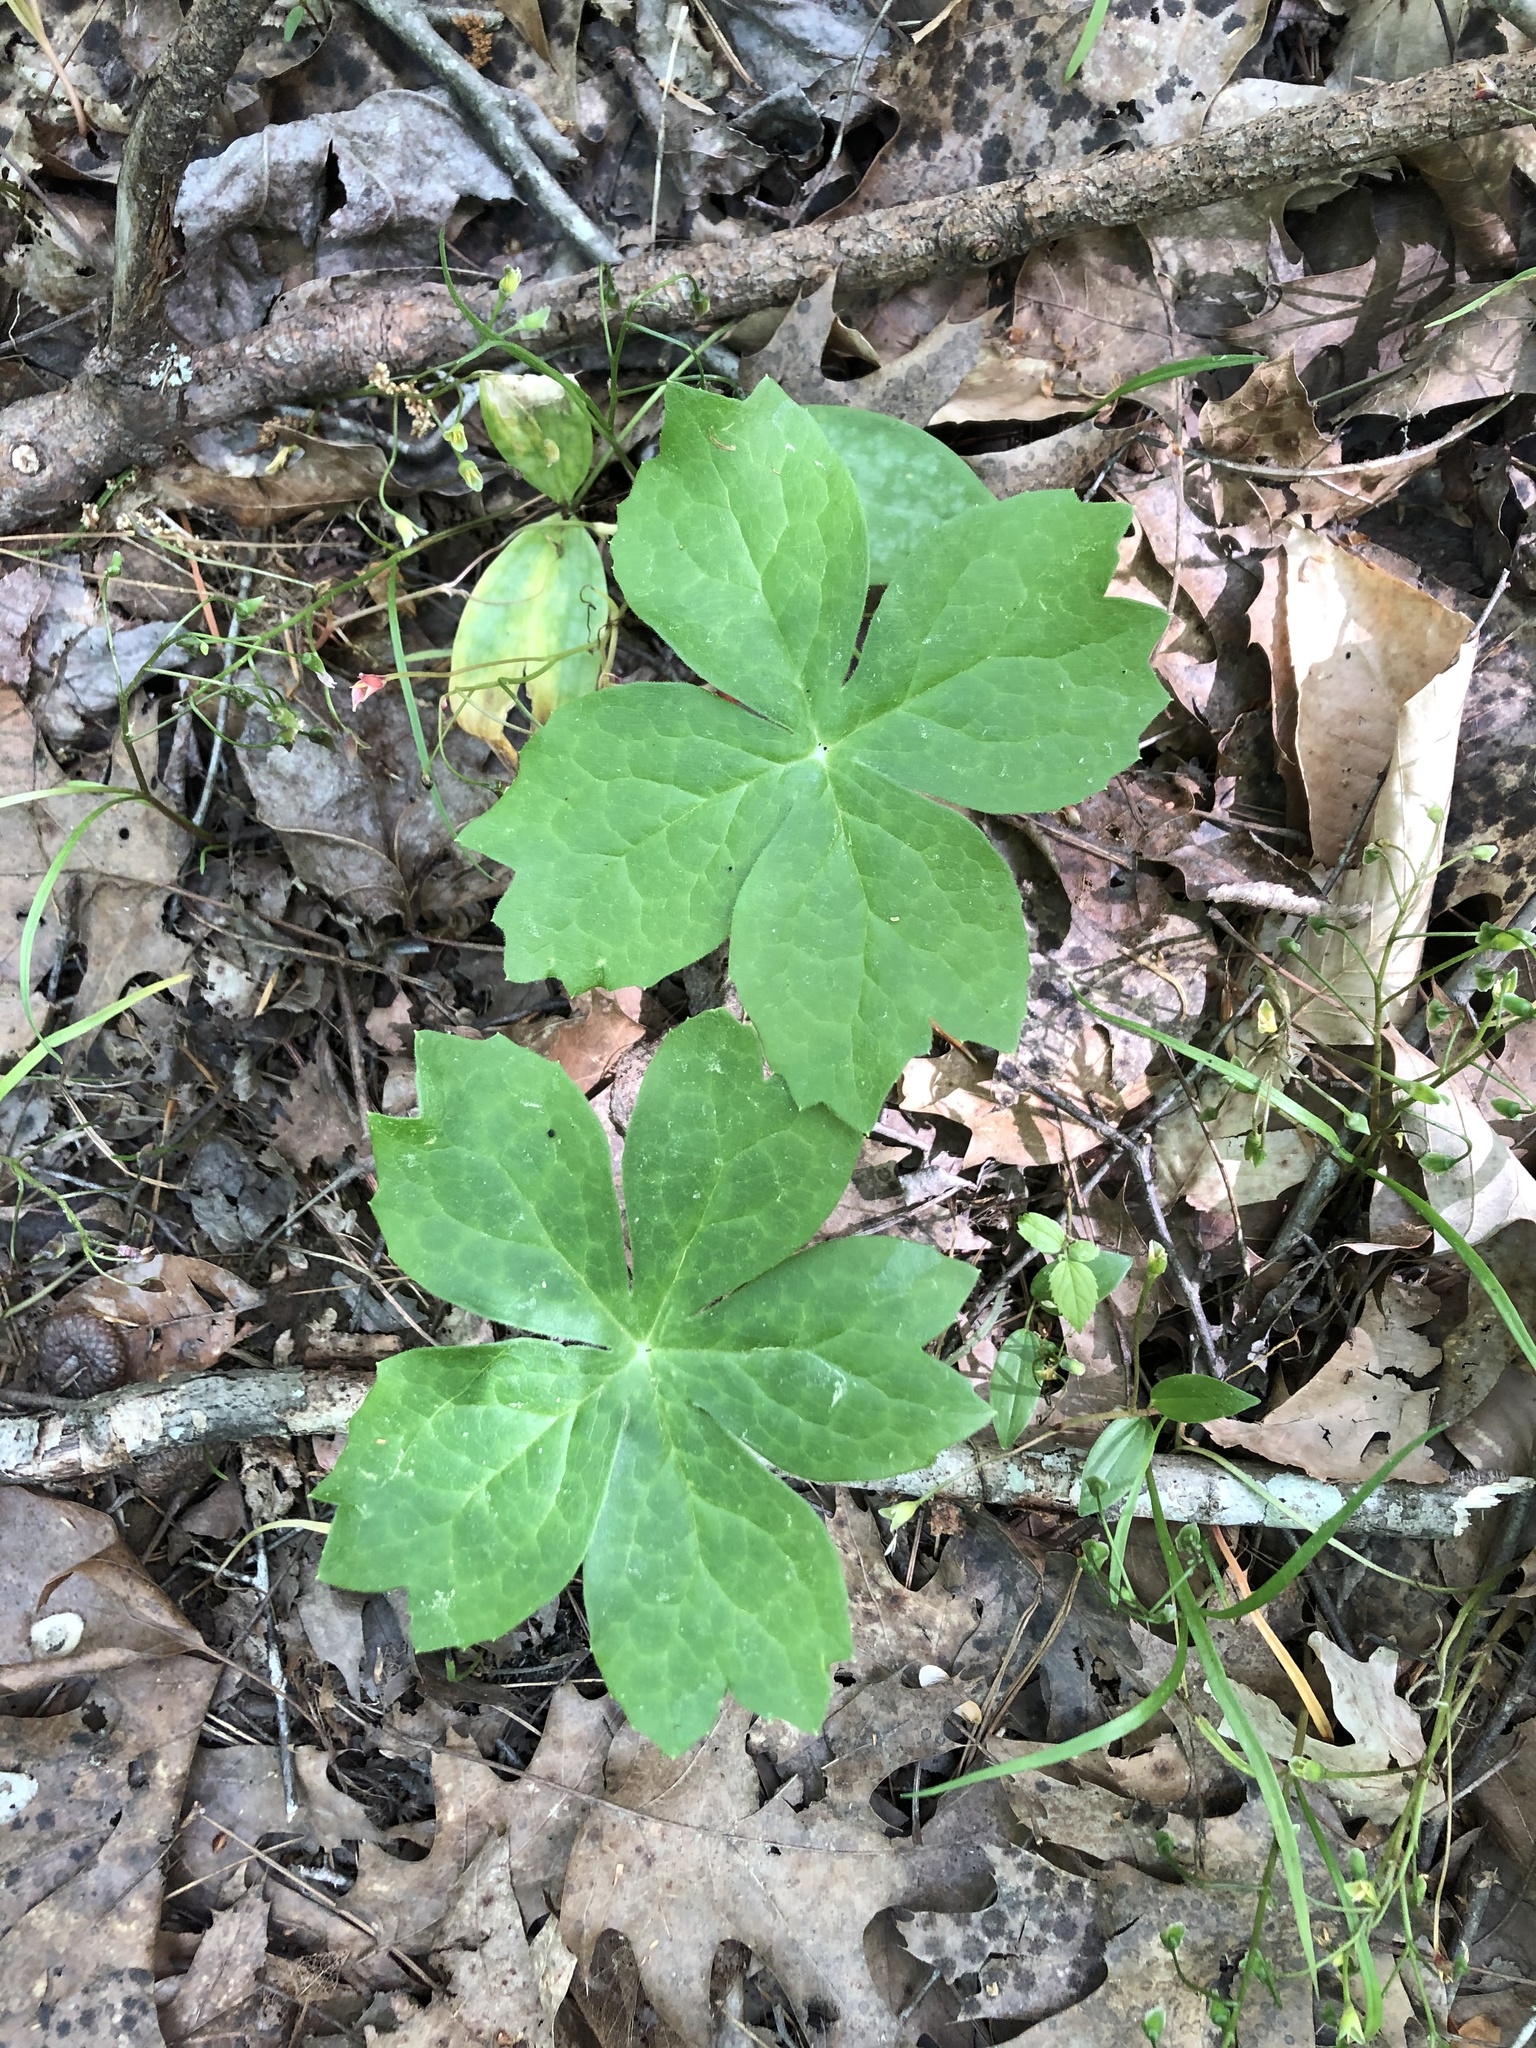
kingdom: Plantae
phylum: Tracheophyta
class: Magnoliopsida
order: Ranunculales
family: Berberidaceae
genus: Podophyllum
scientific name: Podophyllum peltatum
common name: Wild mandrake
